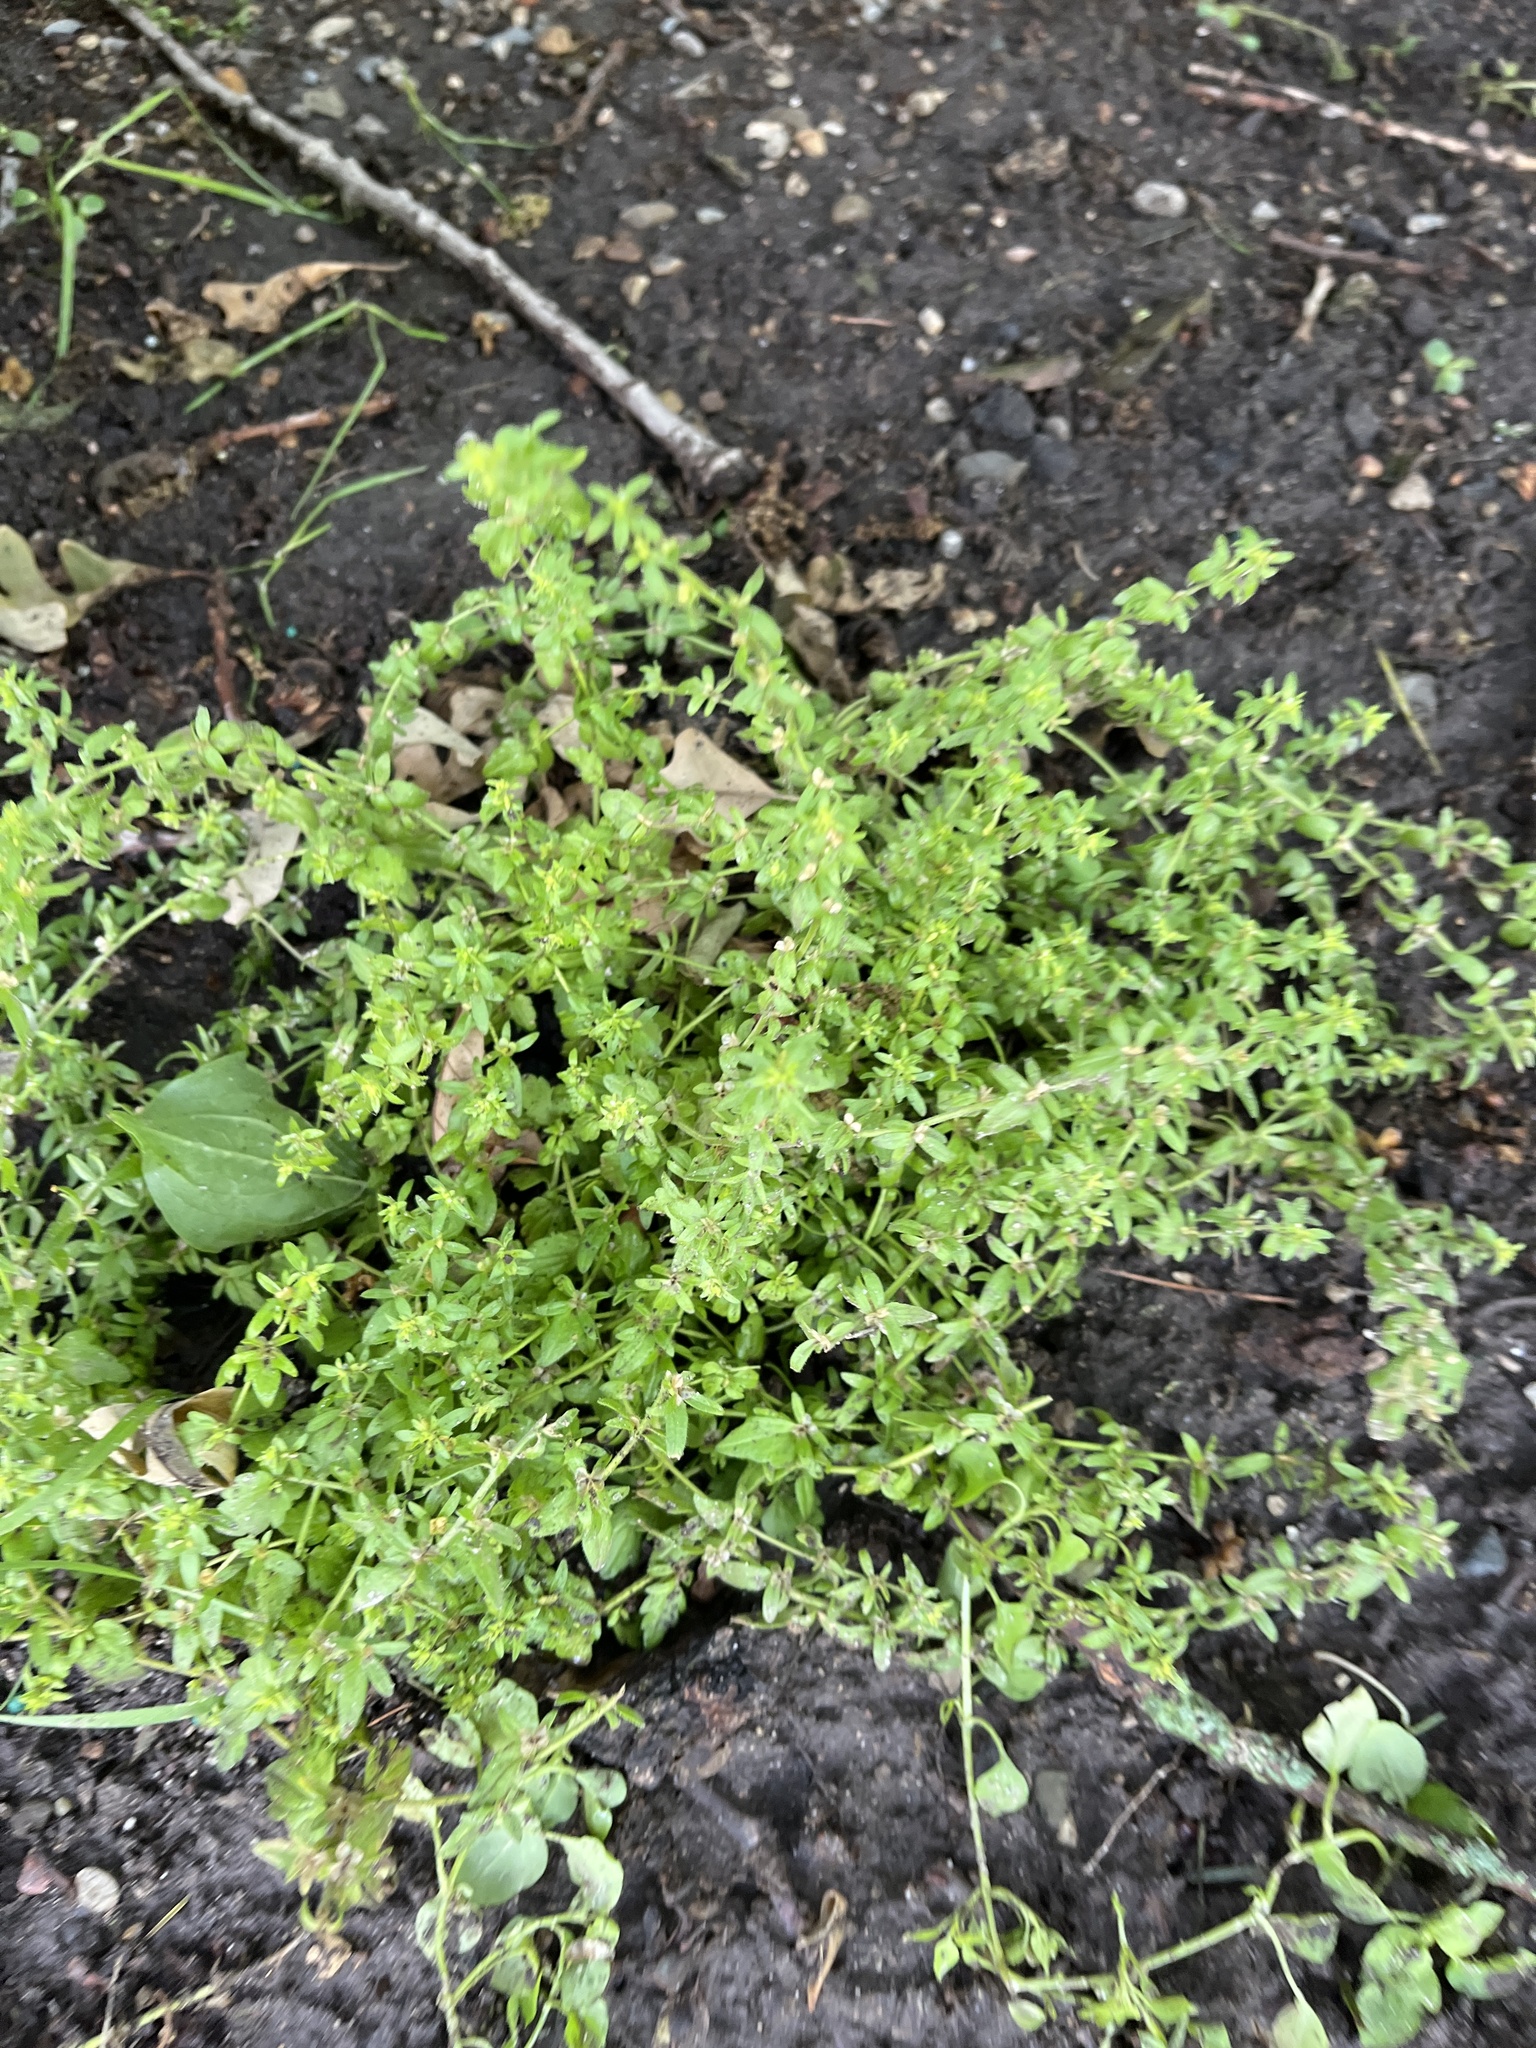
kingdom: Plantae
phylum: Tracheophyta
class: Magnoliopsida
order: Lamiales
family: Plantaginaceae
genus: Veronica
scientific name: Veronica arvensis
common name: Corn speedwell
